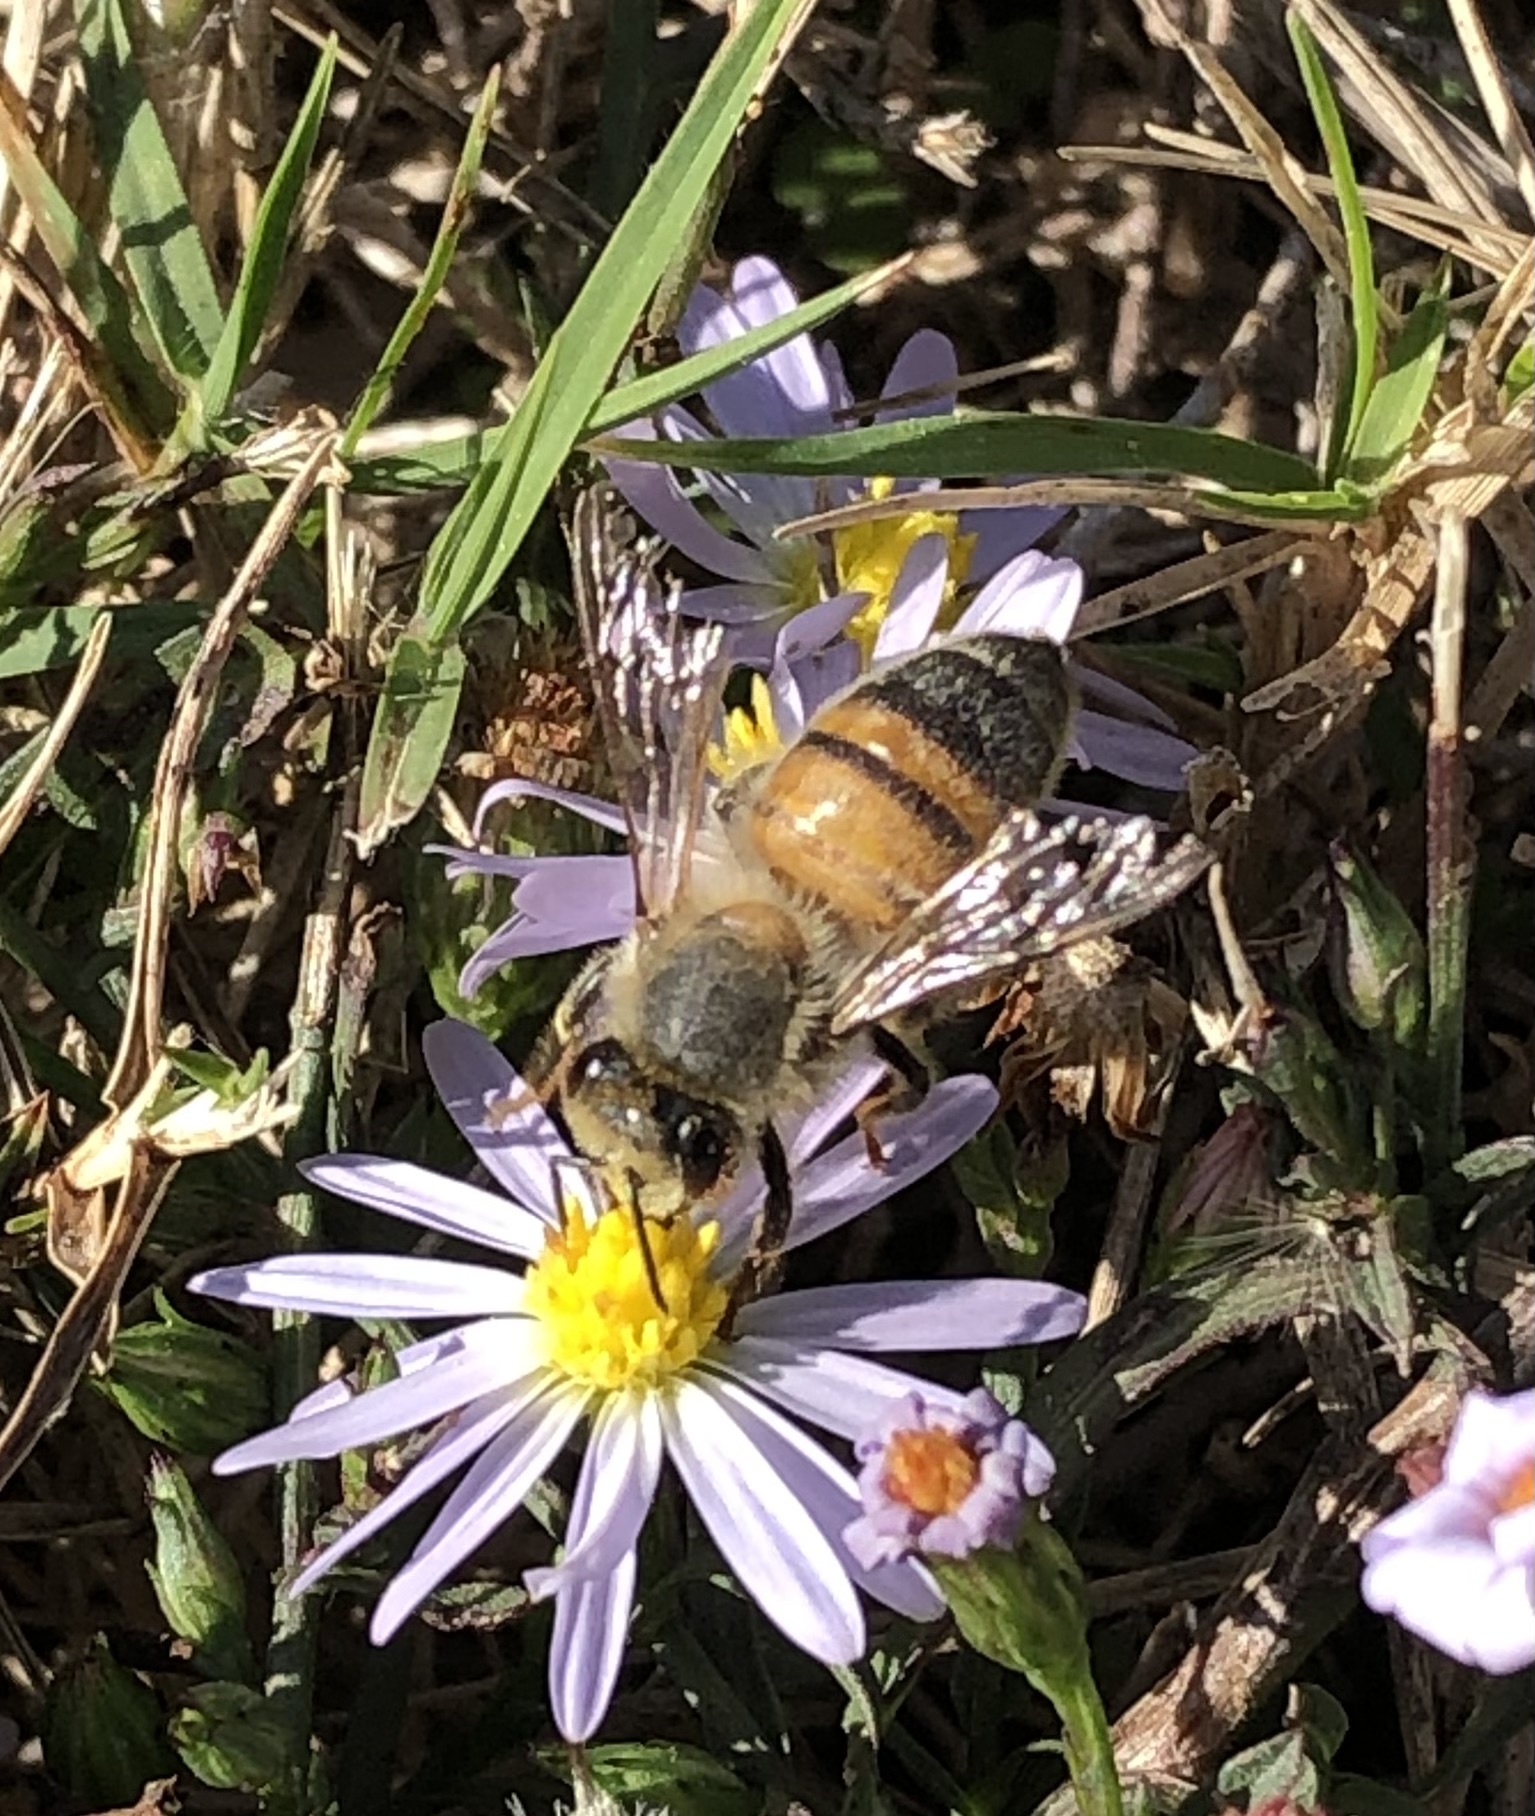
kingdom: Animalia
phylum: Arthropoda
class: Insecta
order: Hymenoptera
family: Apidae
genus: Apis
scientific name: Apis mellifera
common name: Honey bee
